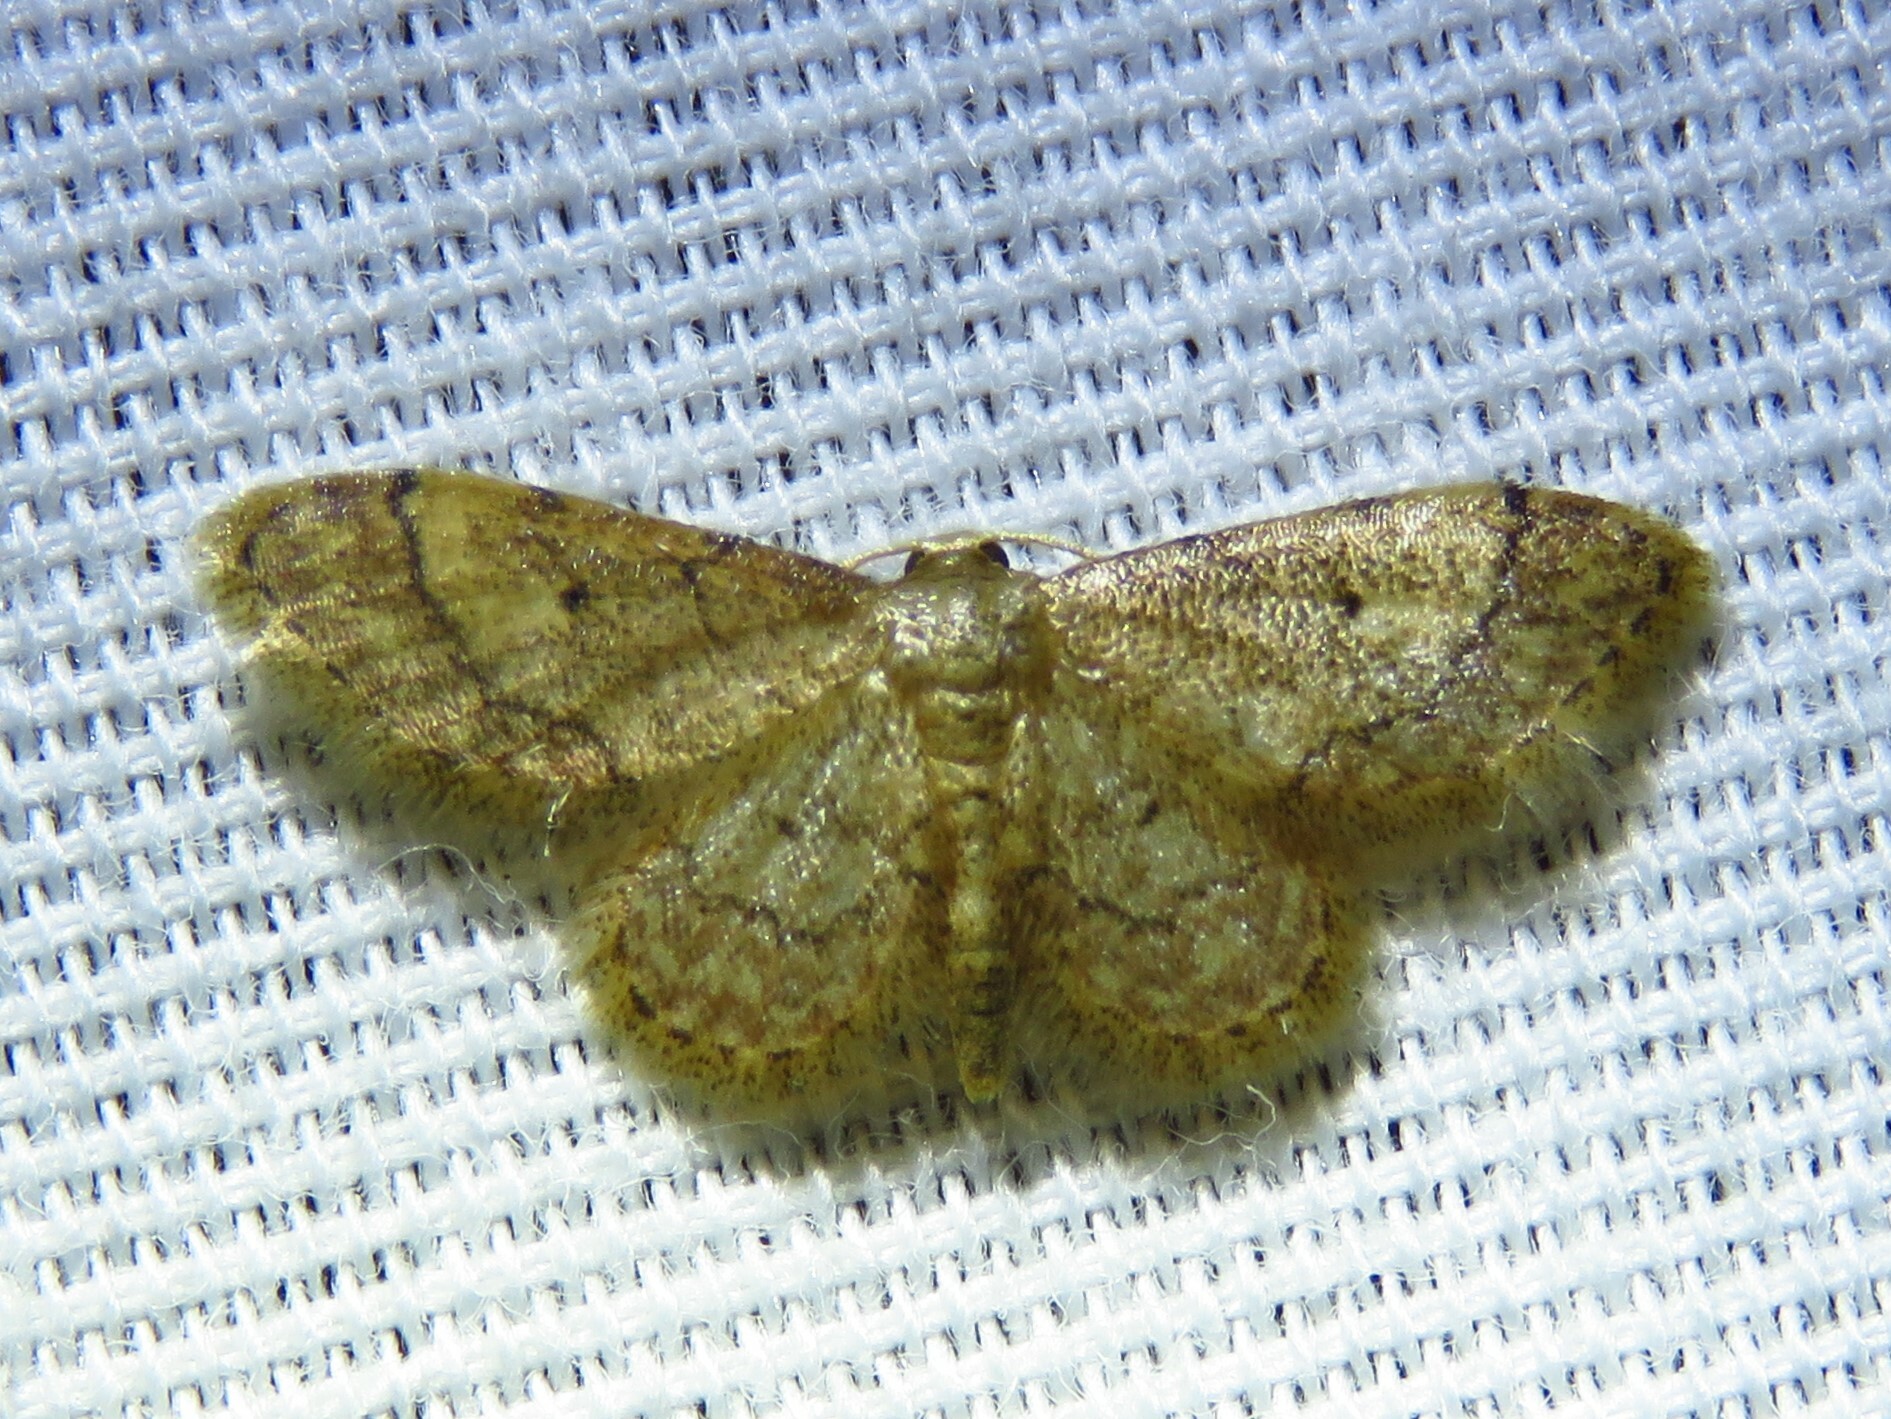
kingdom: Animalia
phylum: Arthropoda
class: Insecta
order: Lepidoptera
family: Geometridae
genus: Idaea
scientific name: Idaea celtima
